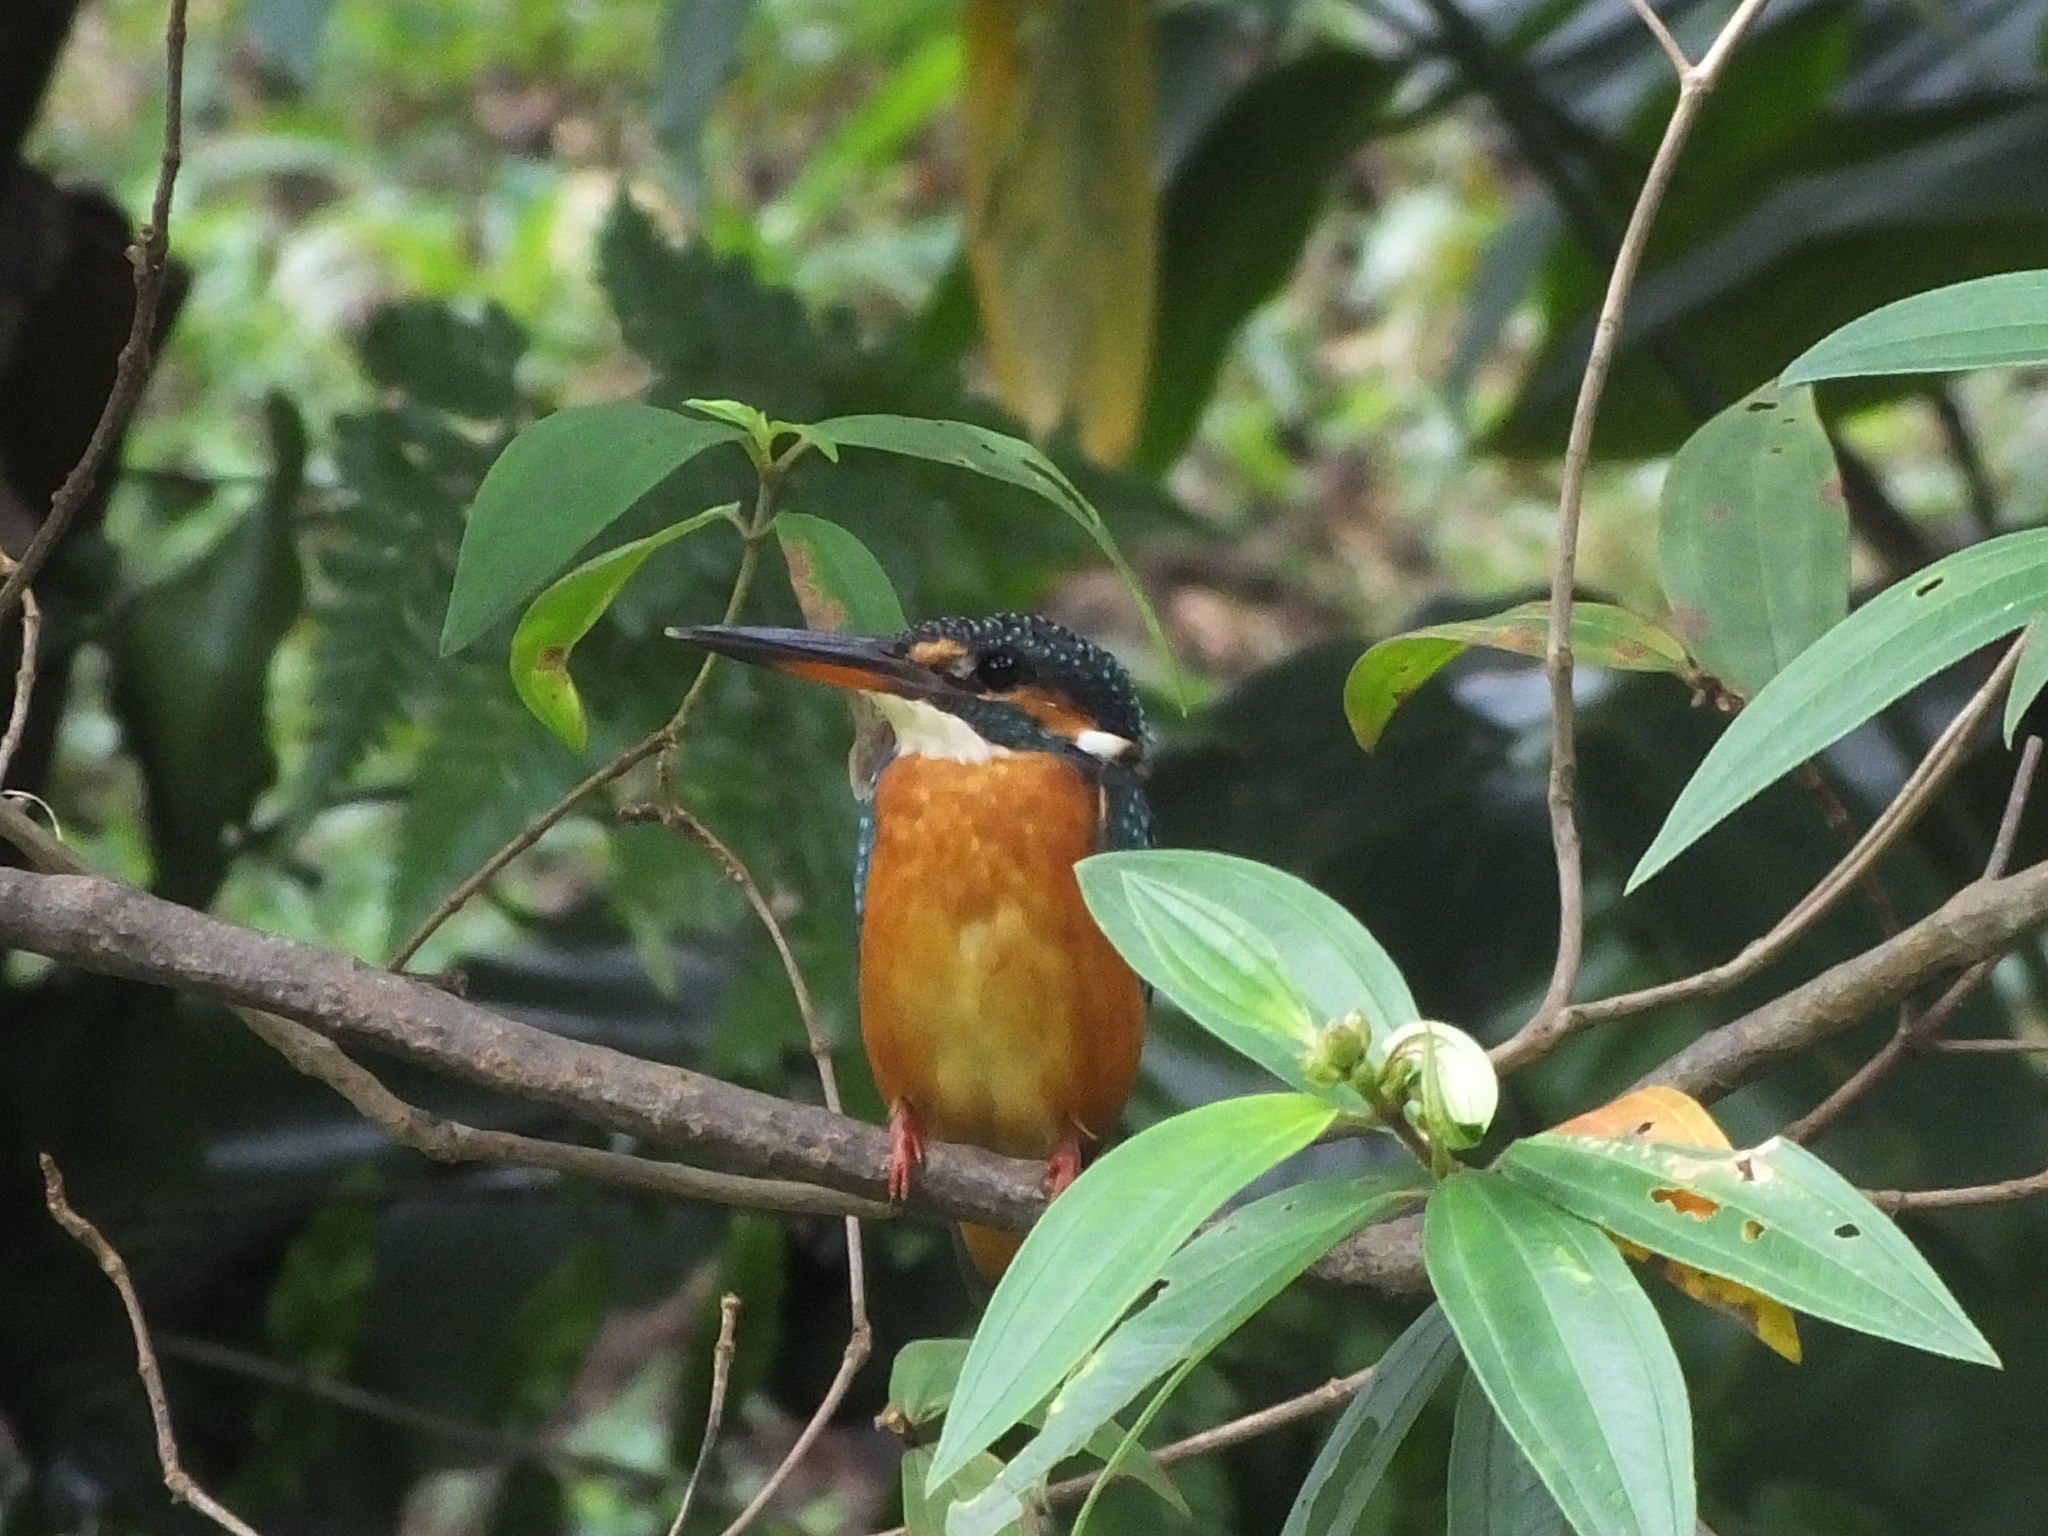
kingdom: Animalia
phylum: Chordata
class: Aves
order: Coraciiformes
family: Alcedinidae
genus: Alcedo
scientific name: Alcedo atthis
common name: Common kingfisher
